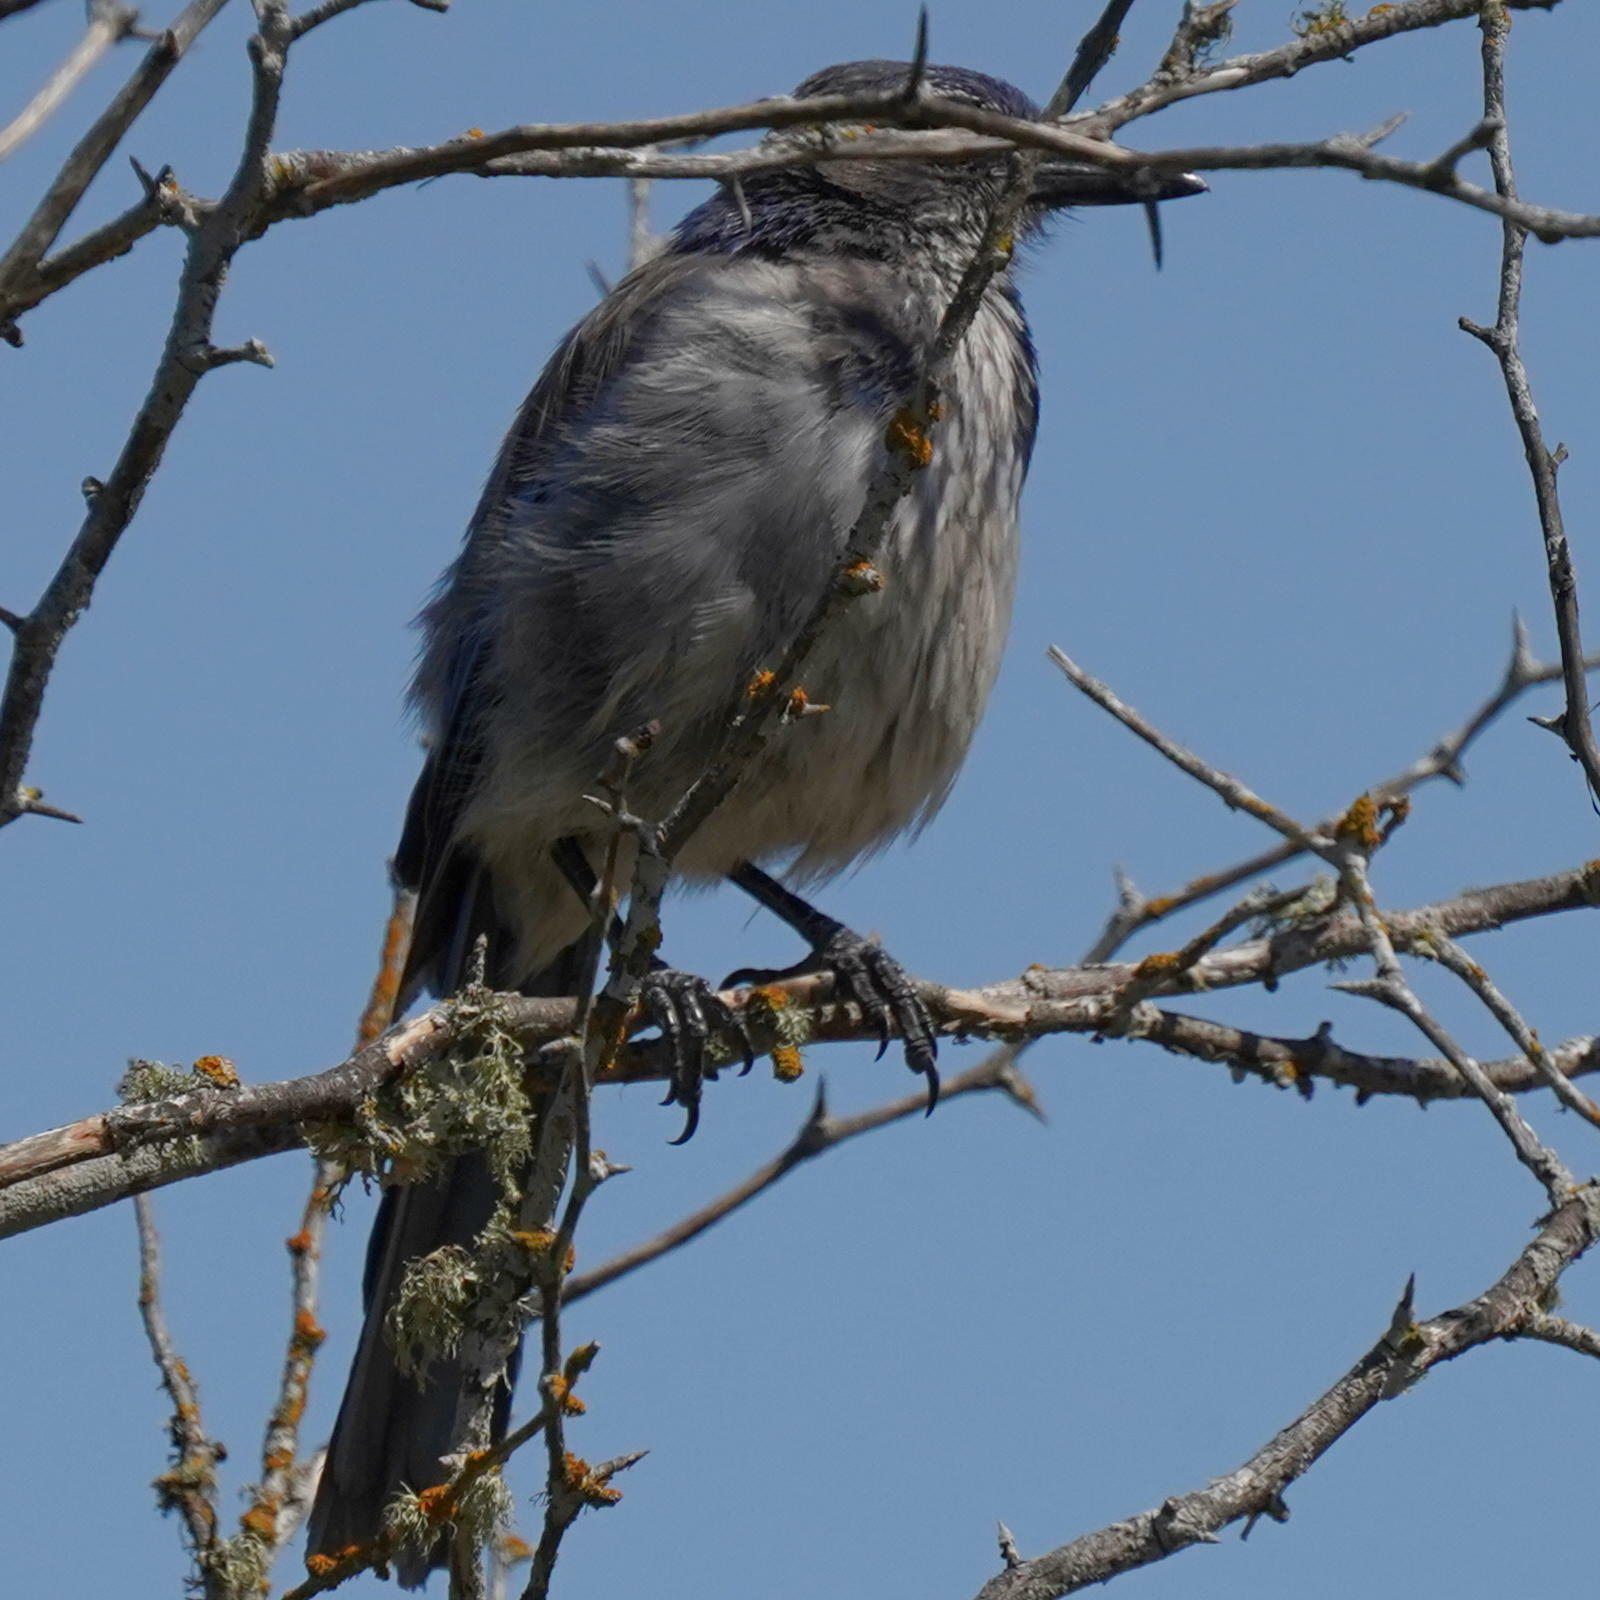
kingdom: Animalia
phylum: Chordata
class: Aves
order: Passeriformes
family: Corvidae
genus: Aphelocoma
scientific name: Aphelocoma californica
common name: California scrub-jay
